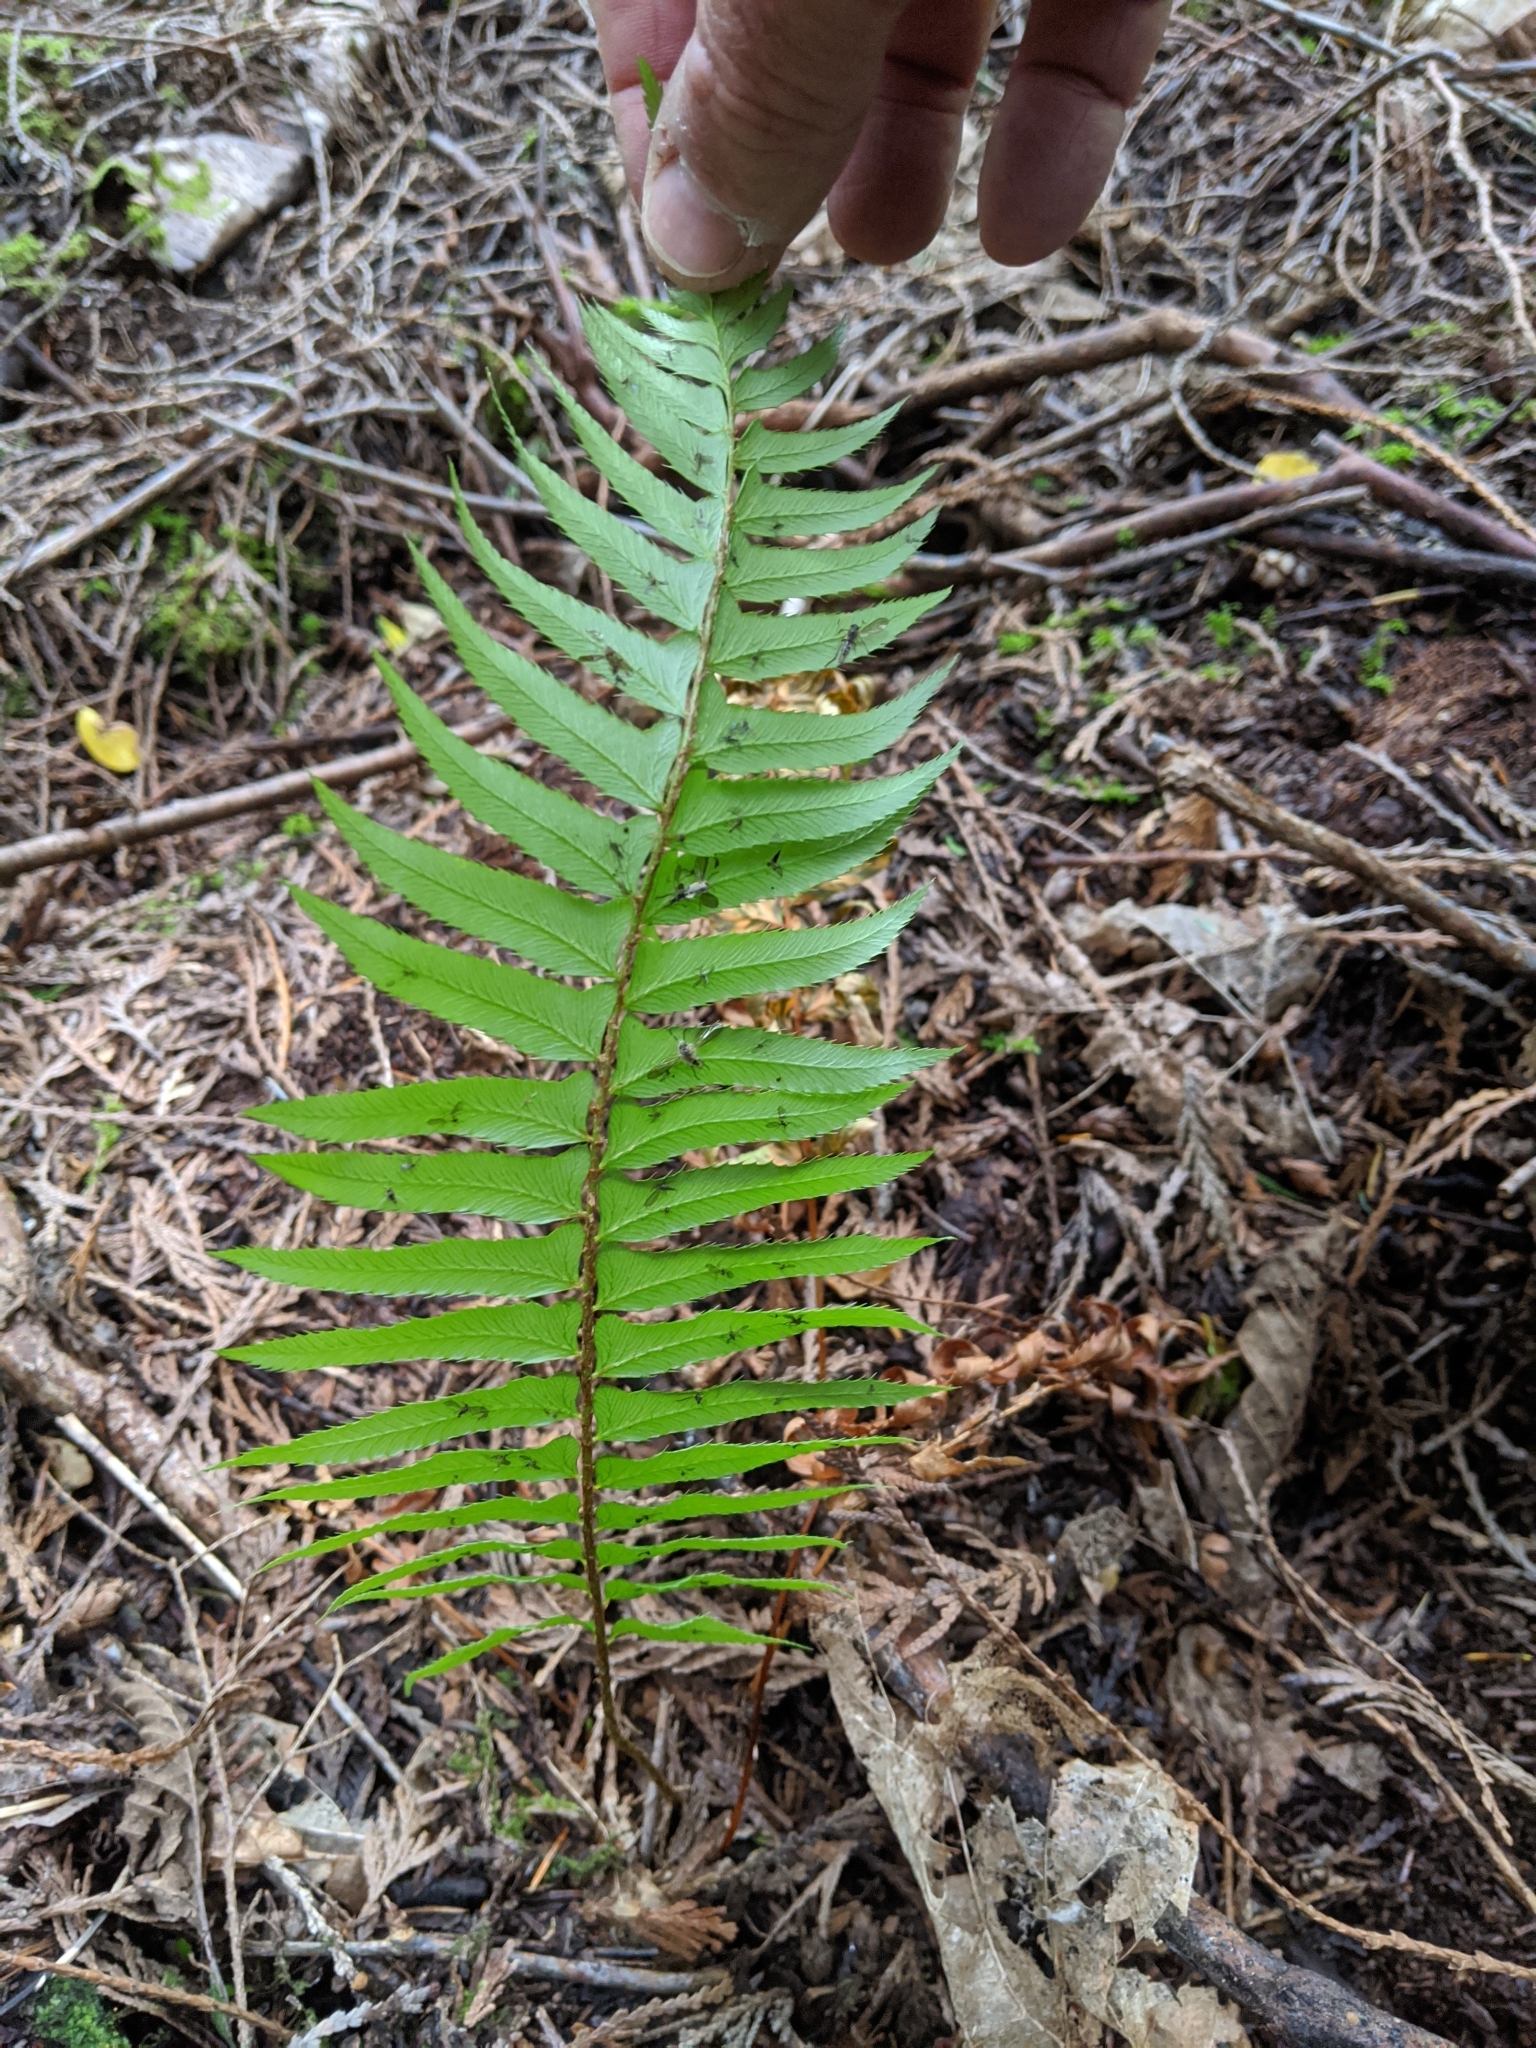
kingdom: Plantae
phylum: Tracheophyta
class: Polypodiopsida
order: Polypodiales
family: Dryopteridaceae
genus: Polystichum
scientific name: Polystichum munitum
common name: Western sword-fern
